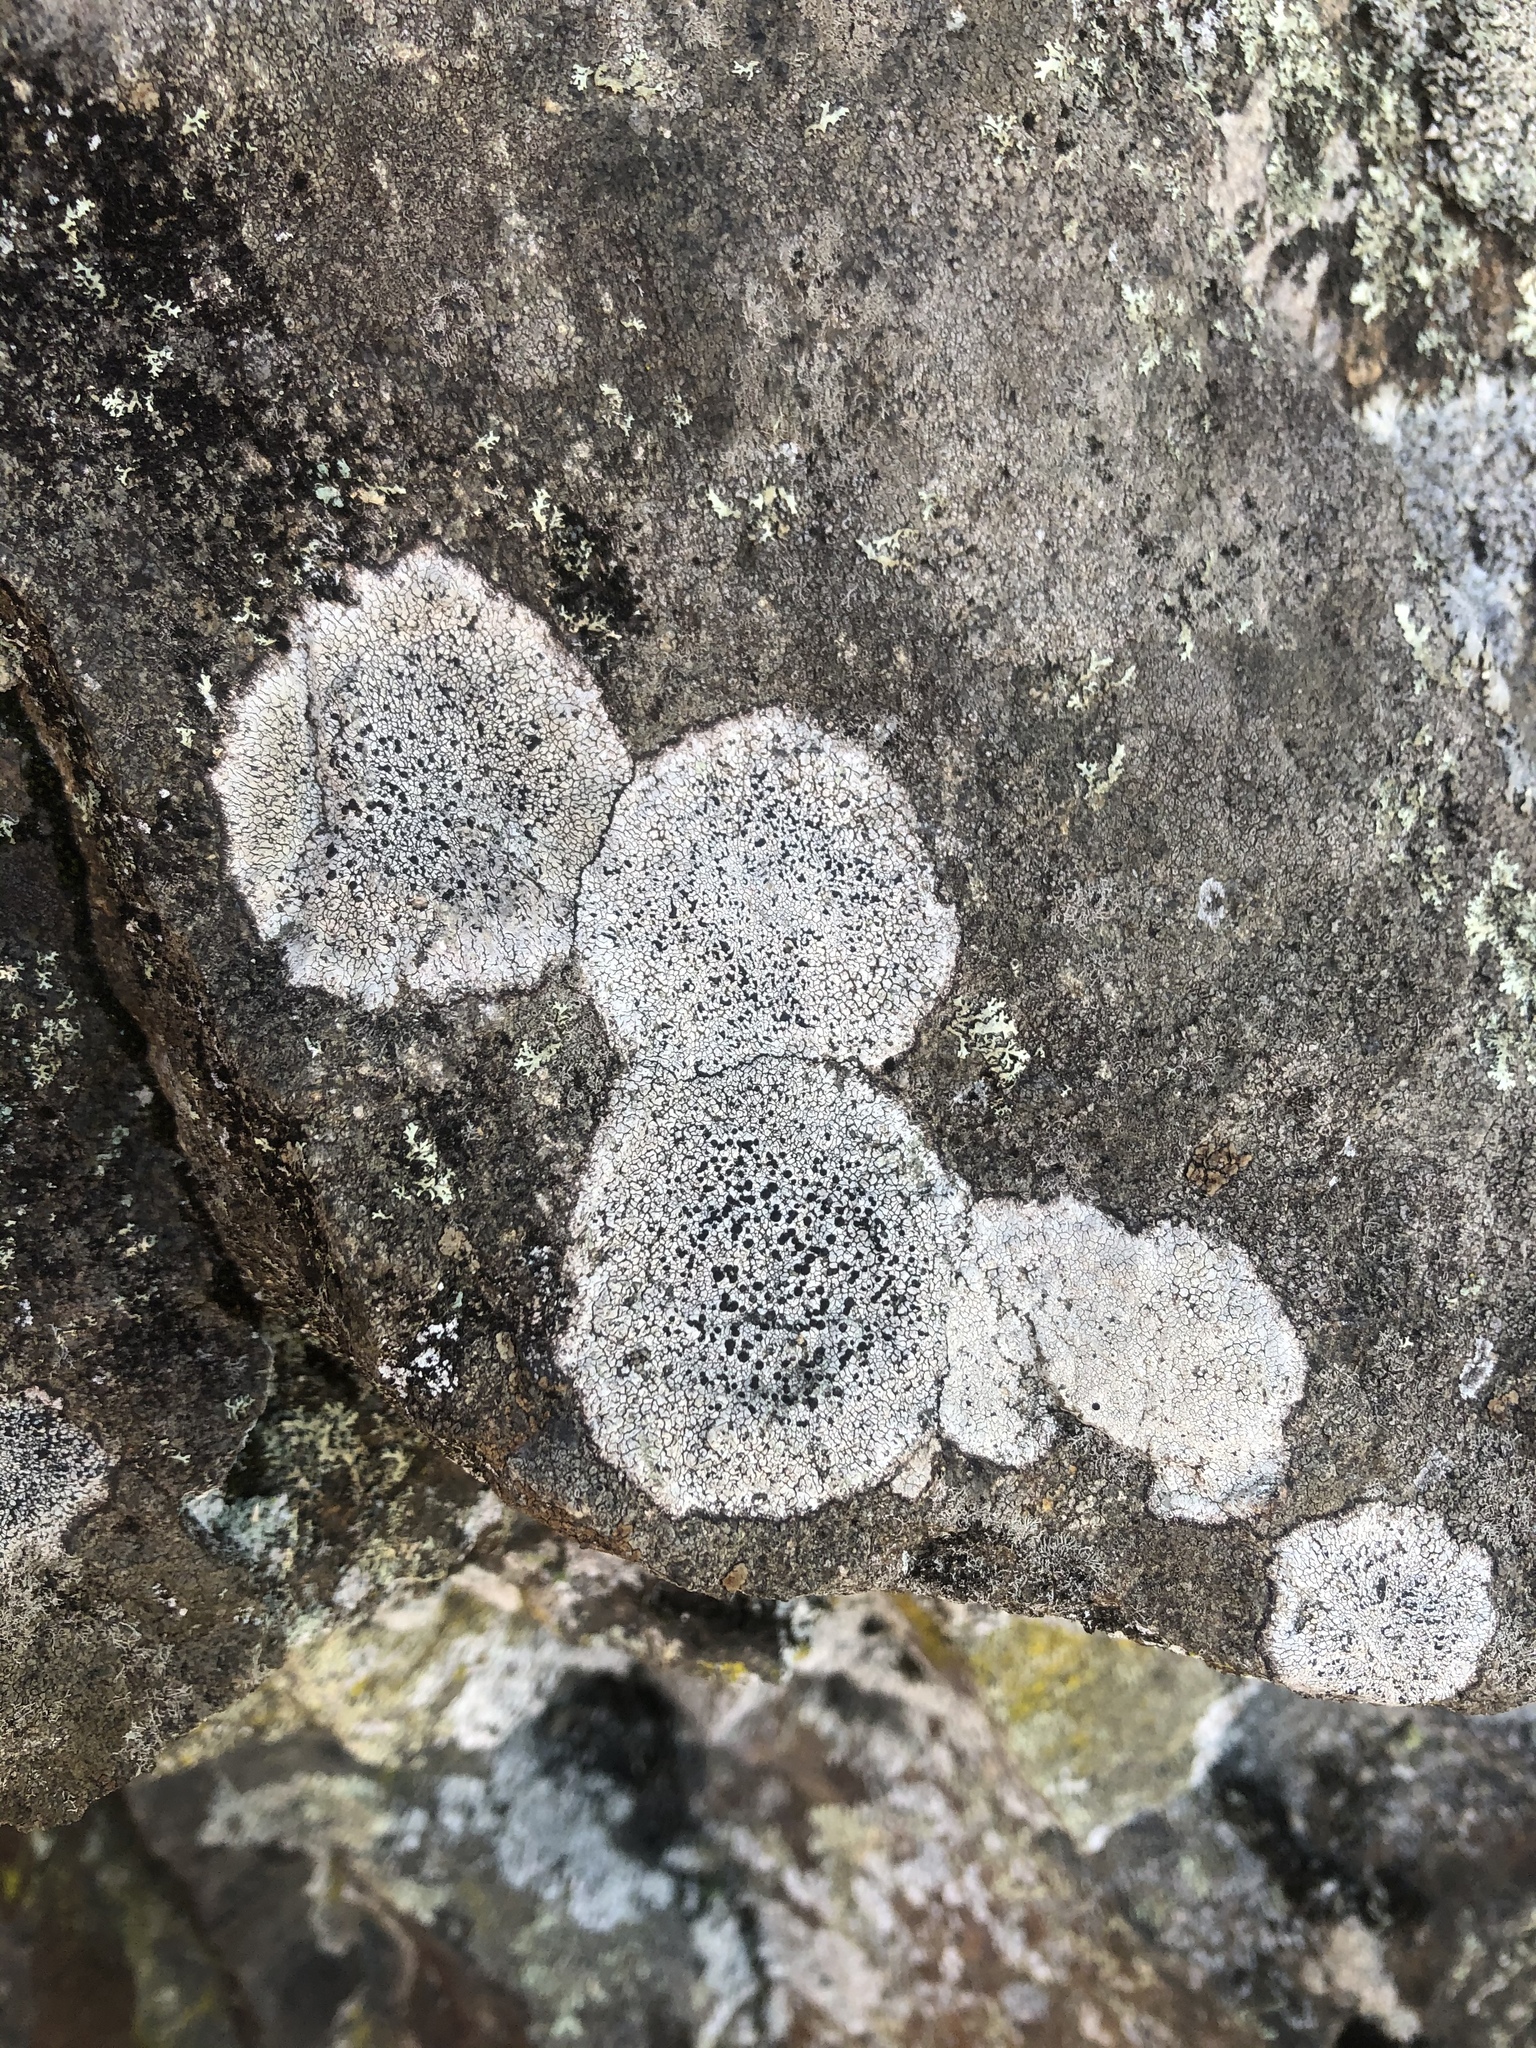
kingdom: Fungi
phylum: Ascomycota
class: Lecanoromycetes
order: Lecideales
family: Lecideaceae
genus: Porpidia
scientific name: Porpidia crustulata
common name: Concentric boulder lichen
